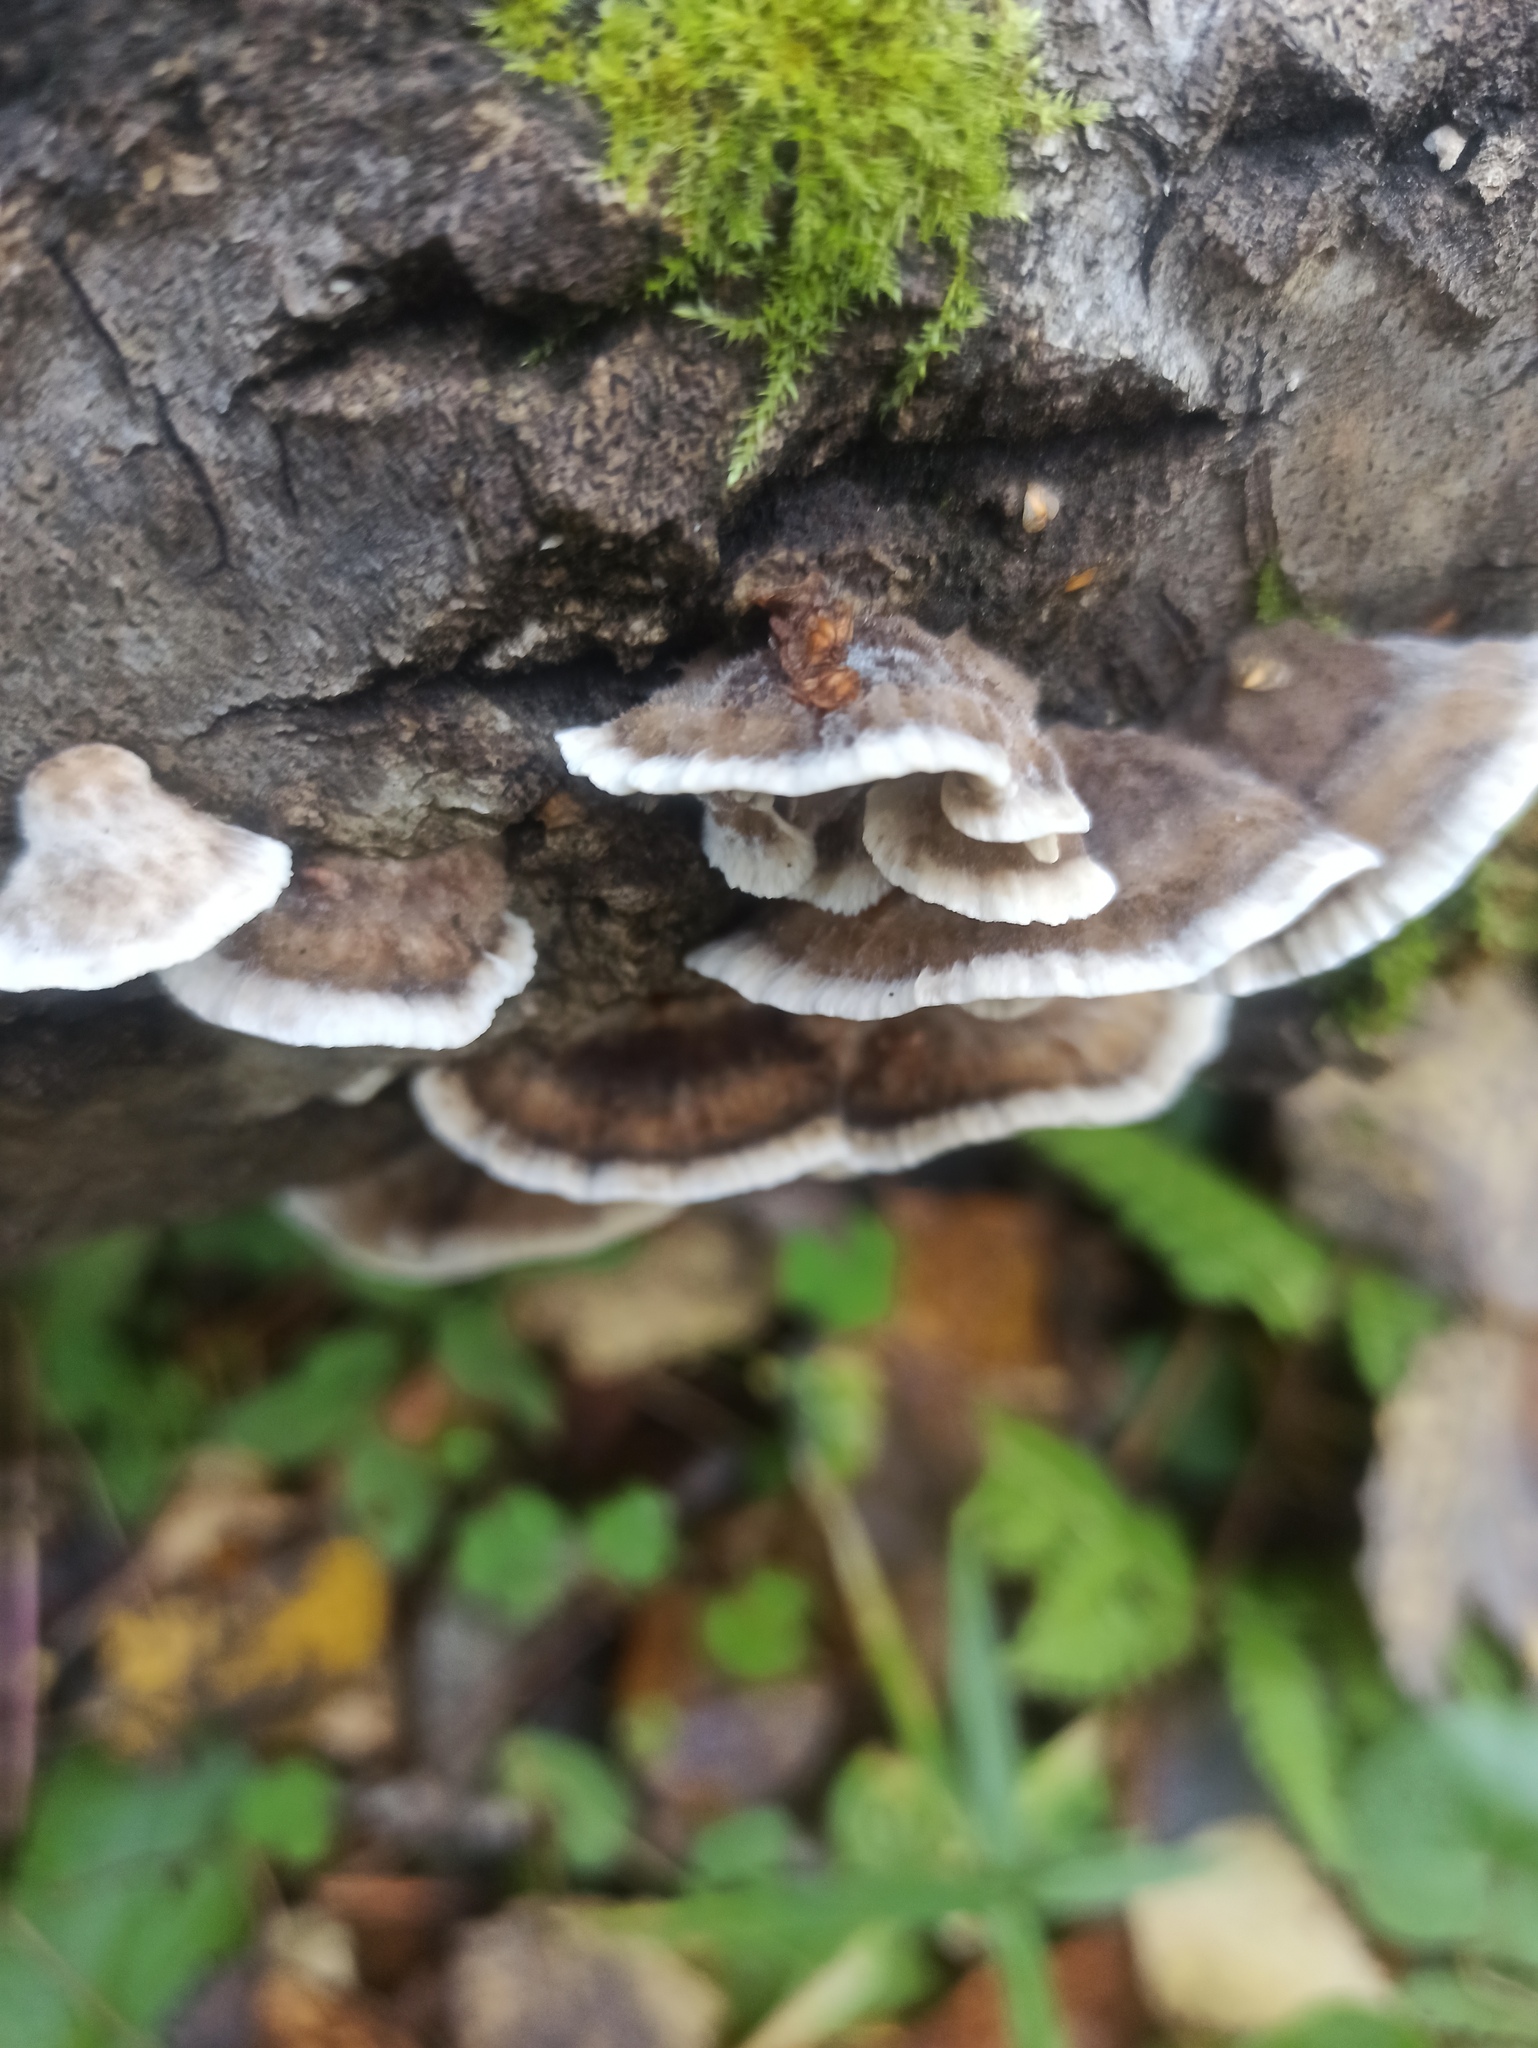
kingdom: Fungi
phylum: Basidiomycota
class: Agaricomycetes
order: Polyporales
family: Phanerochaetaceae
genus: Bjerkandera
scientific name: Bjerkandera adusta
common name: Smoky bracket
